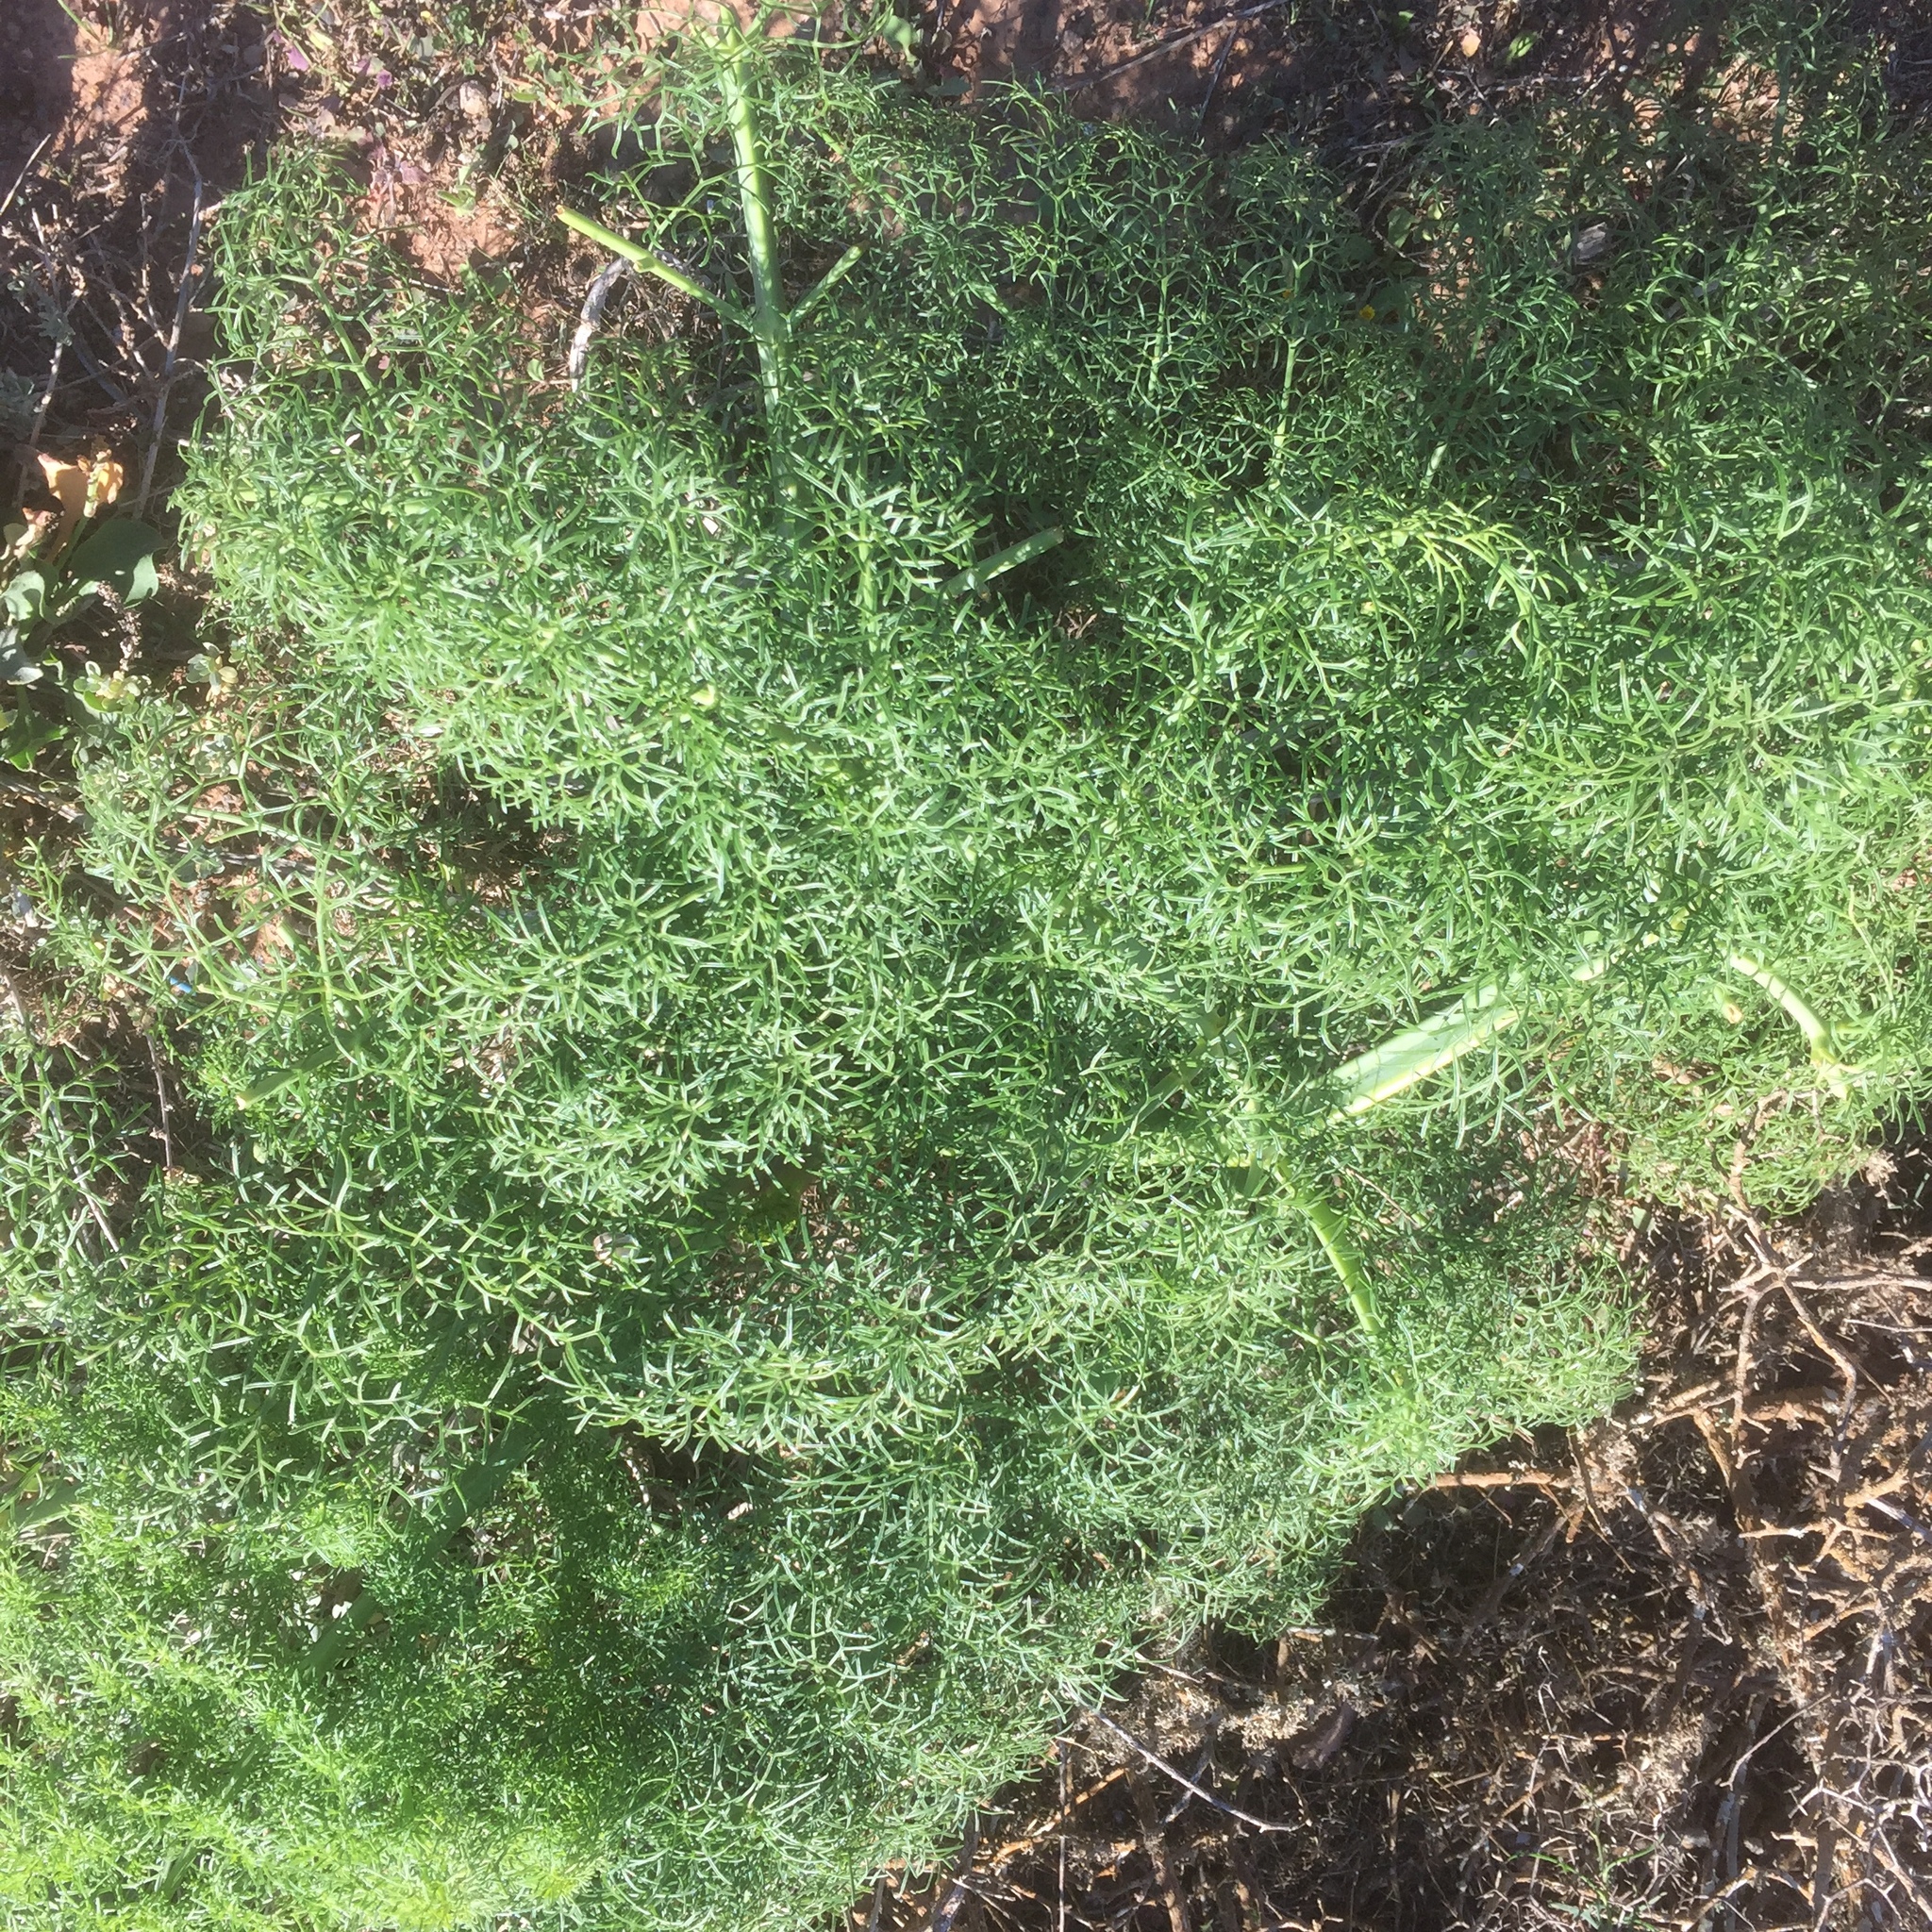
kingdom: Plantae
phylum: Tracheophyta
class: Magnoliopsida
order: Apiales
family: Apiaceae
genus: Ferula
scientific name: Ferula lancerotensis
